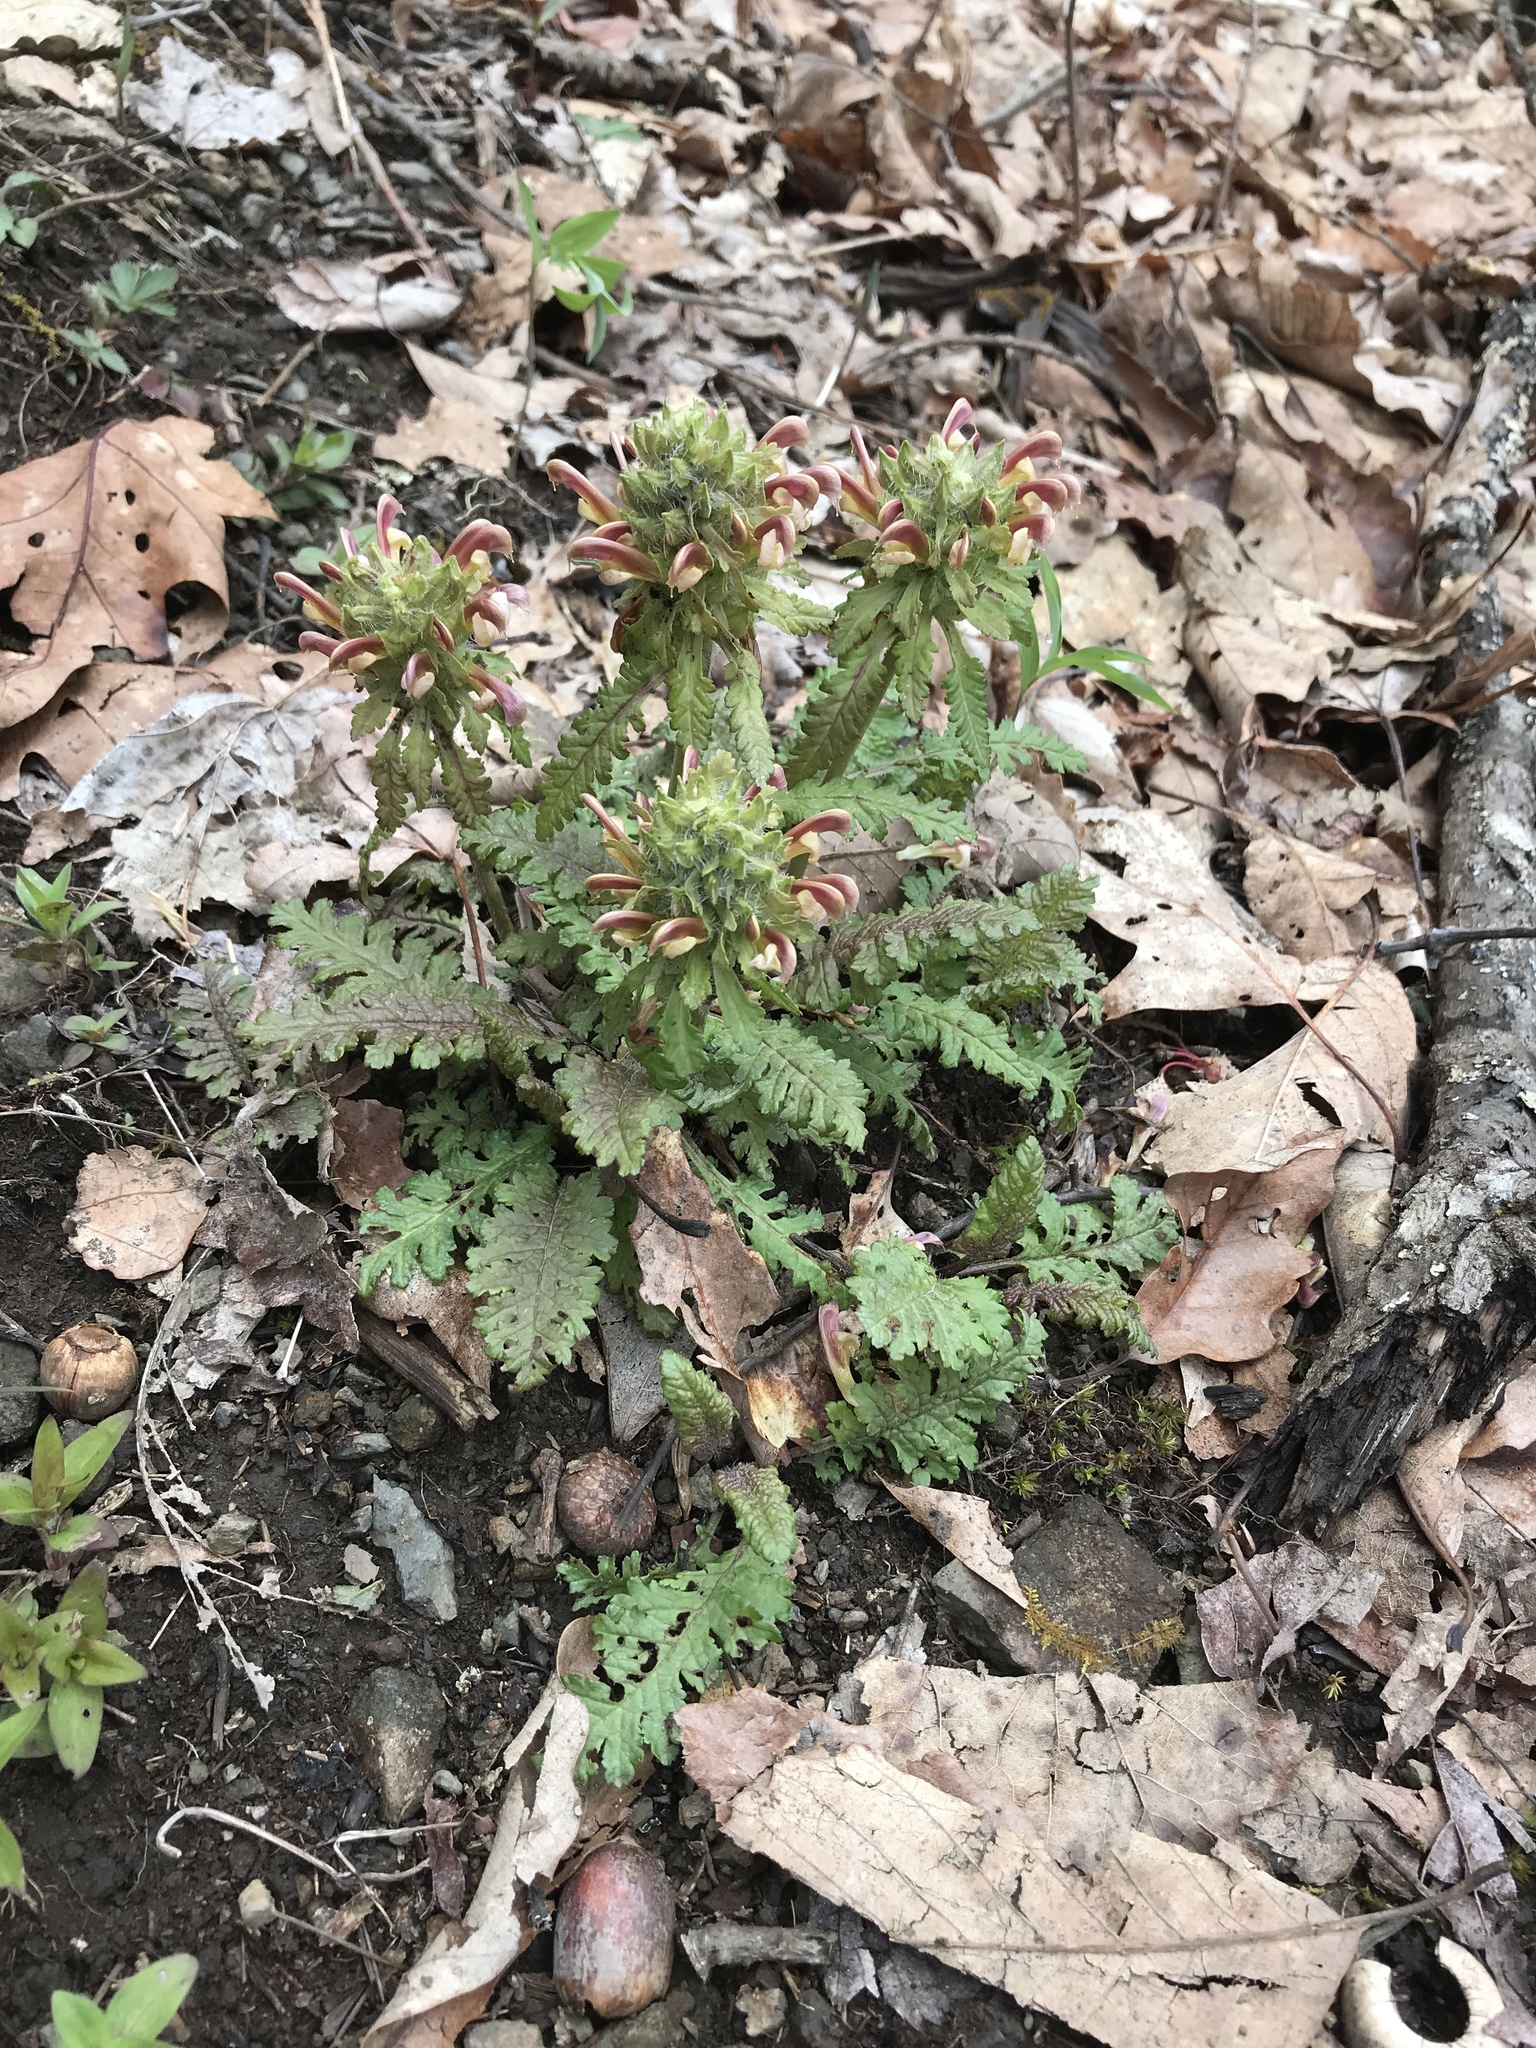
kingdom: Plantae
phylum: Tracheophyta
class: Magnoliopsida
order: Lamiales
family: Orobanchaceae
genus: Pedicularis
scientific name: Pedicularis canadensis
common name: Early lousewort
